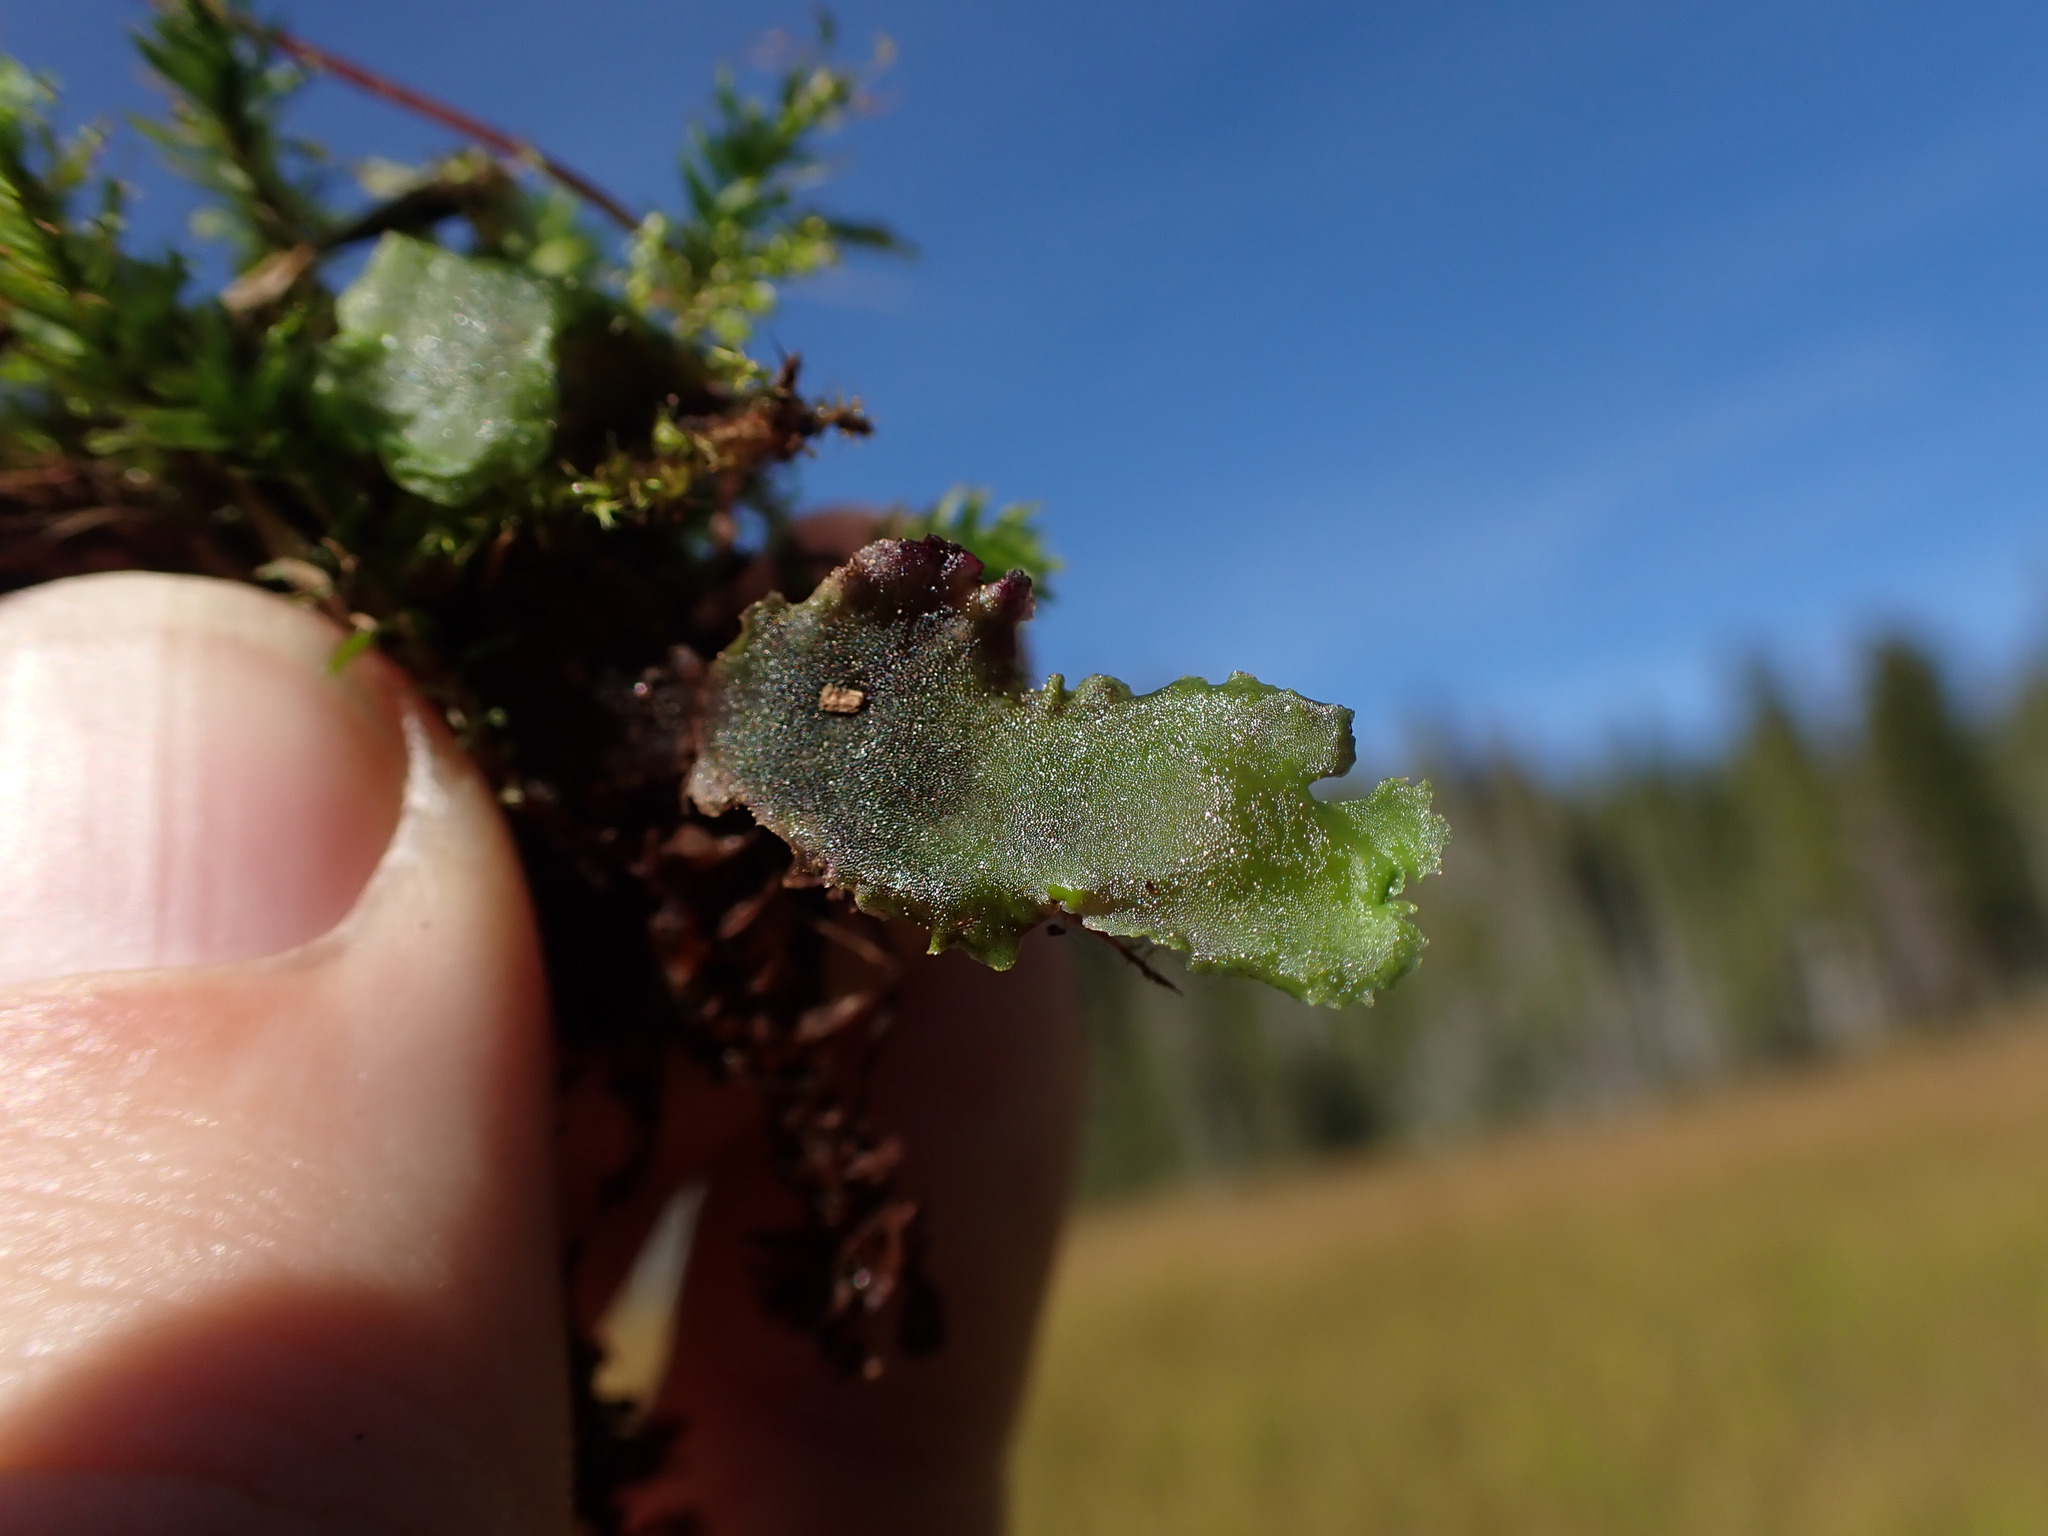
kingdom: Plantae
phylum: Marchantiophyta
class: Jungermanniopsida
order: Pelliales
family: Pelliaceae
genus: Pellia
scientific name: Pellia neesiana
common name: Nees  pellia
